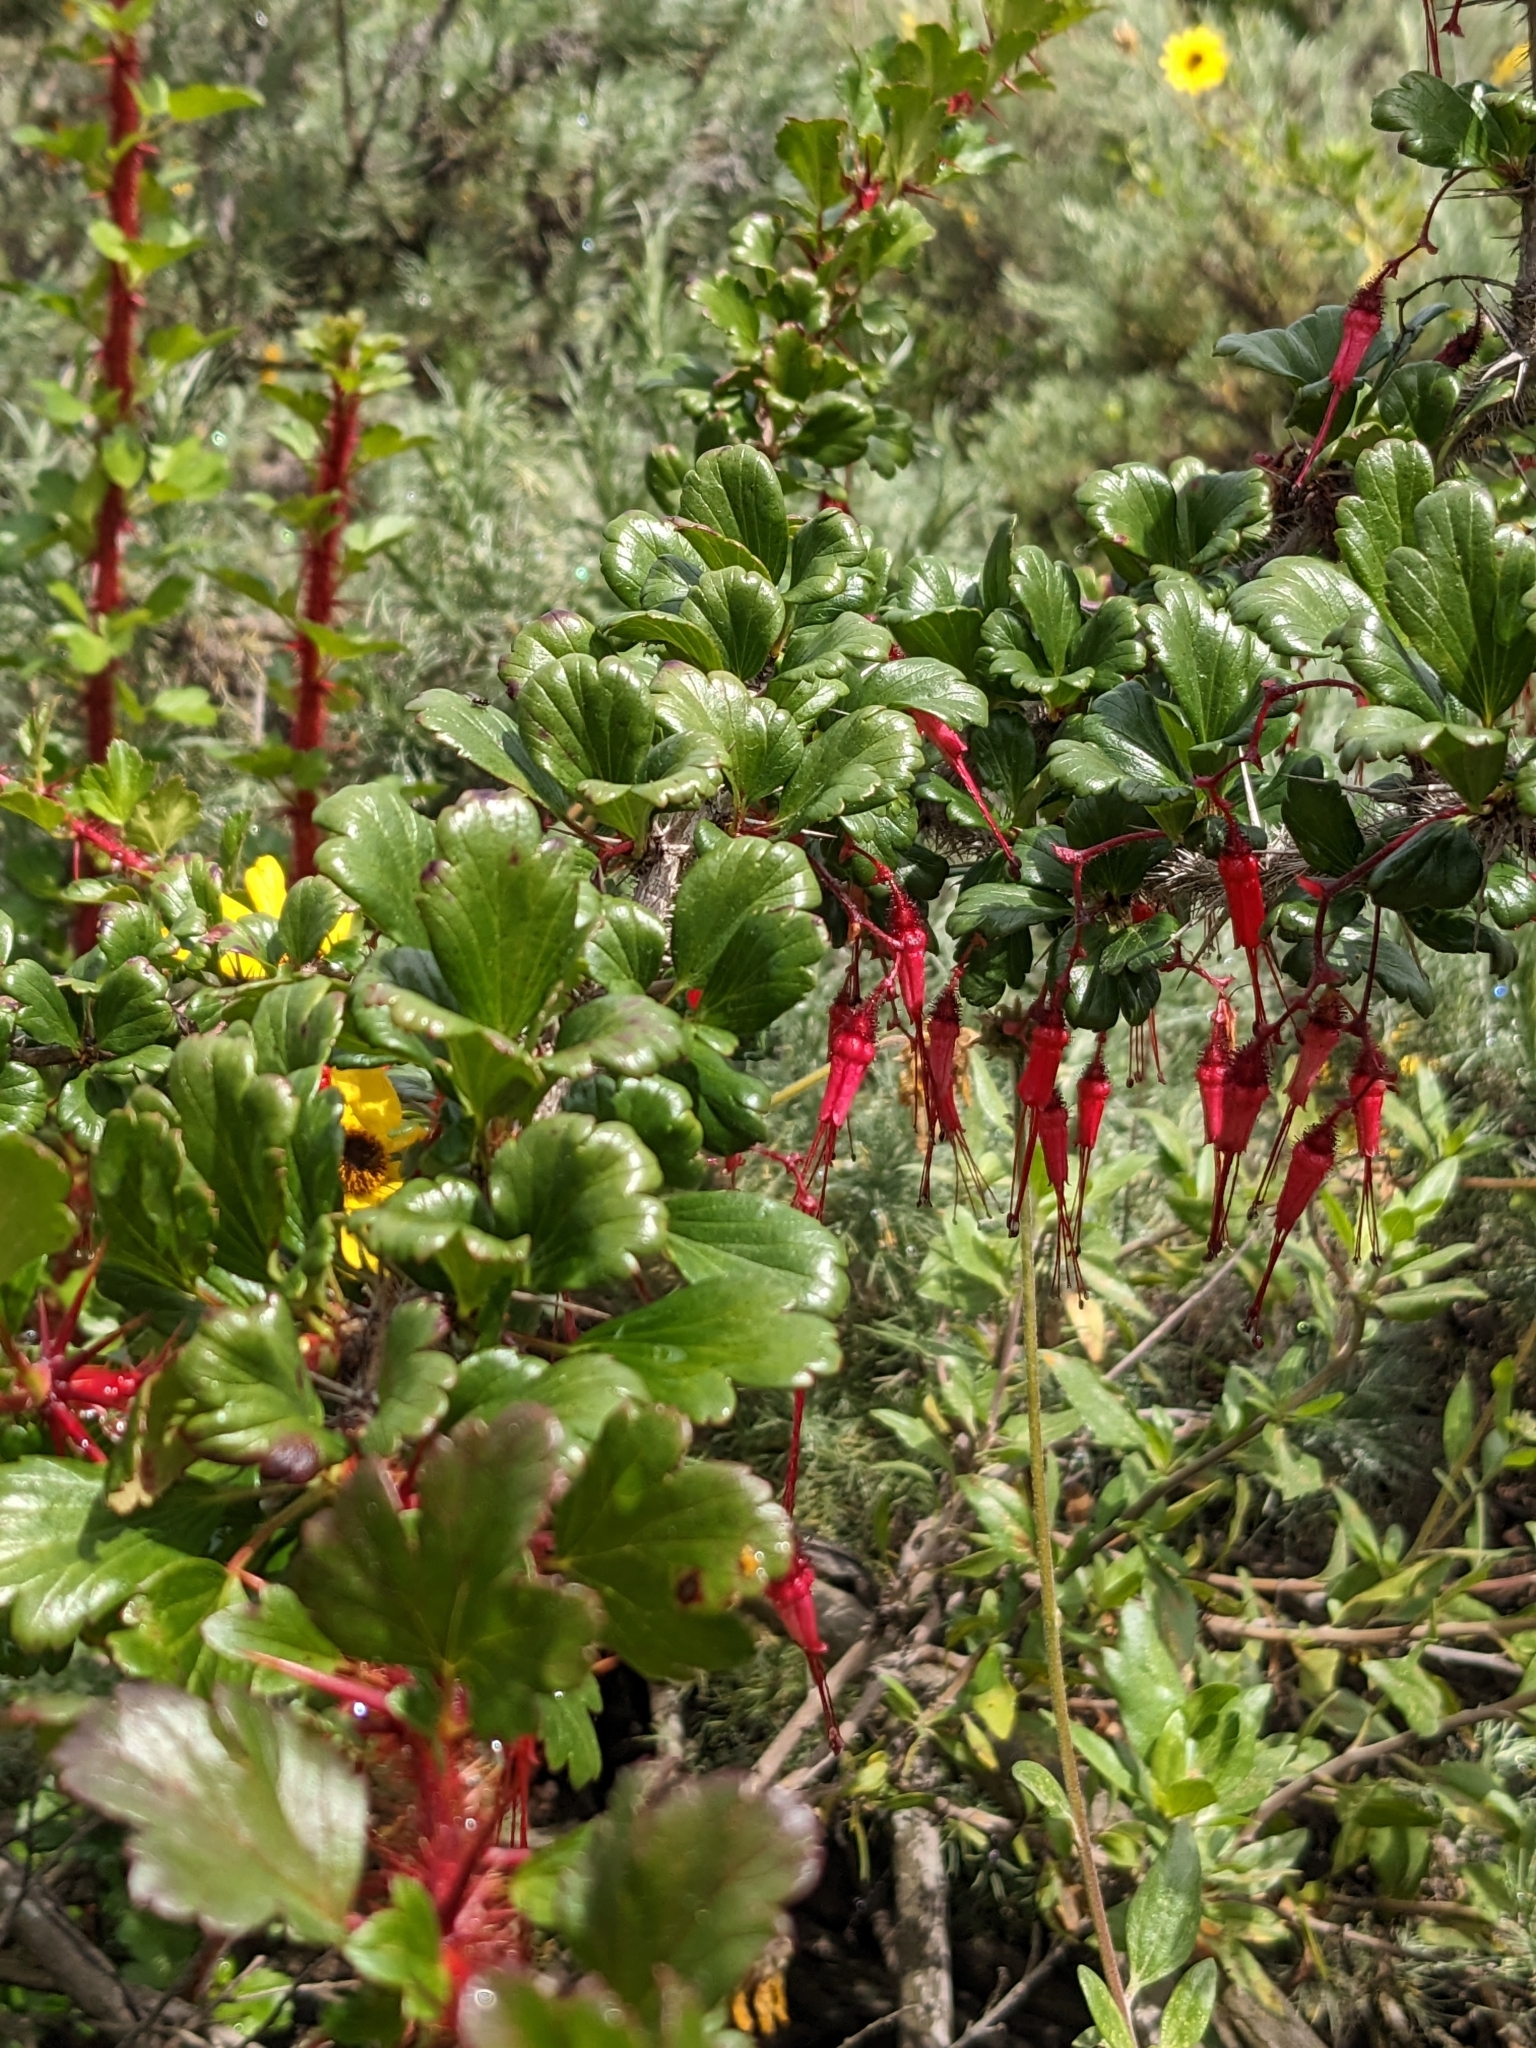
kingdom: Plantae
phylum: Tracheophyta
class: Magnoliopsida
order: Saxifragales
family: Grossulariaceae
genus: Ribes
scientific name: Ribes speciosum
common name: Fuchsia-flower gooseberry
